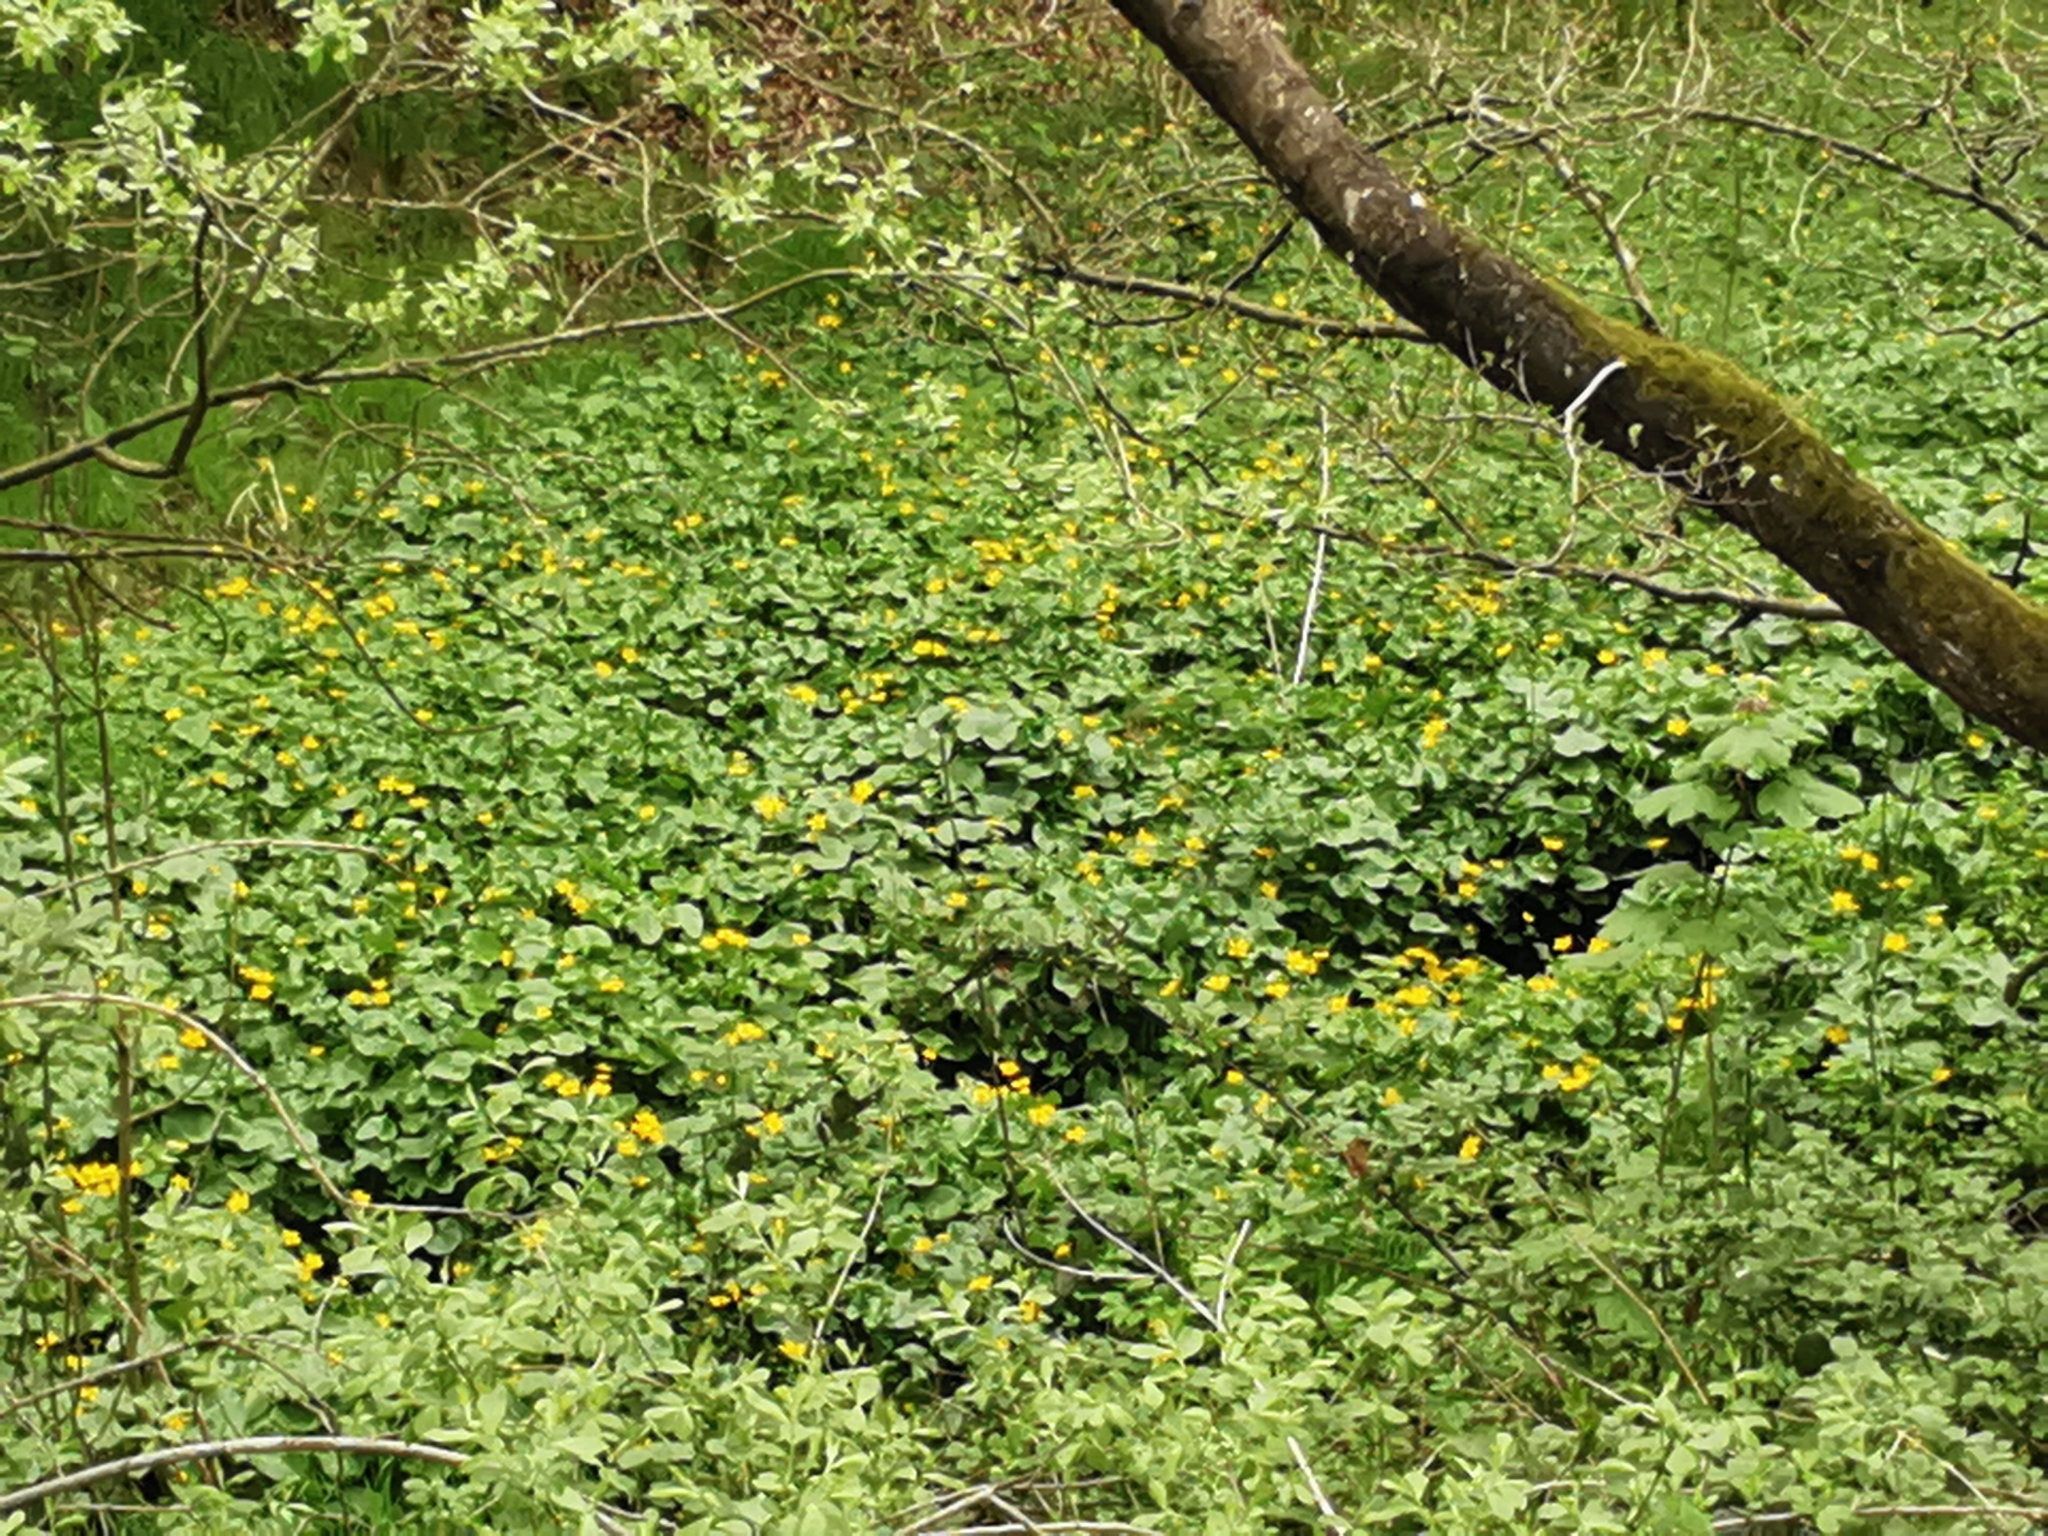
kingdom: Plantae
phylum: Tracheophyta
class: Magnoliopsida
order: Ranunculales
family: Ranunculaceae
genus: Caltha
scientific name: Caltha palustris
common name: Marsh marigold
